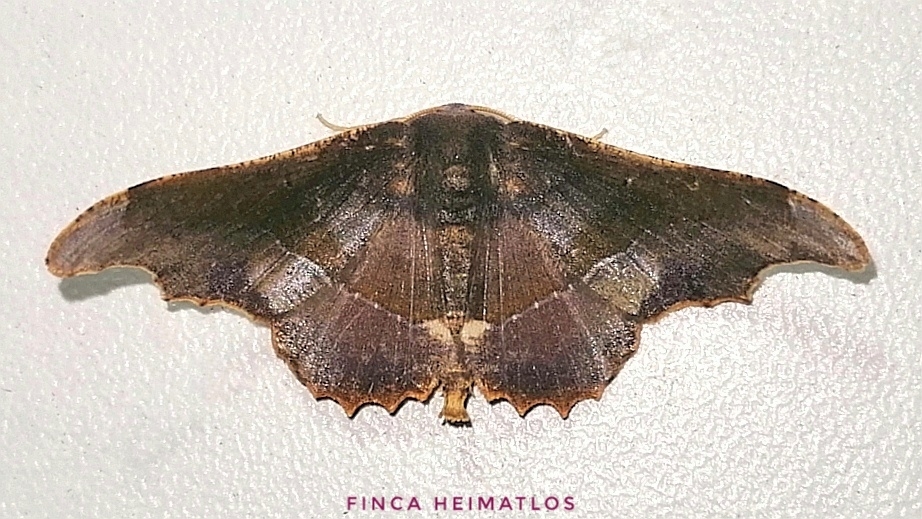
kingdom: Animalia
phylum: Arthropoda
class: Insecta
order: Lepidoptera
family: Geometridae
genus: Patalene
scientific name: Patalene aenetusaria
